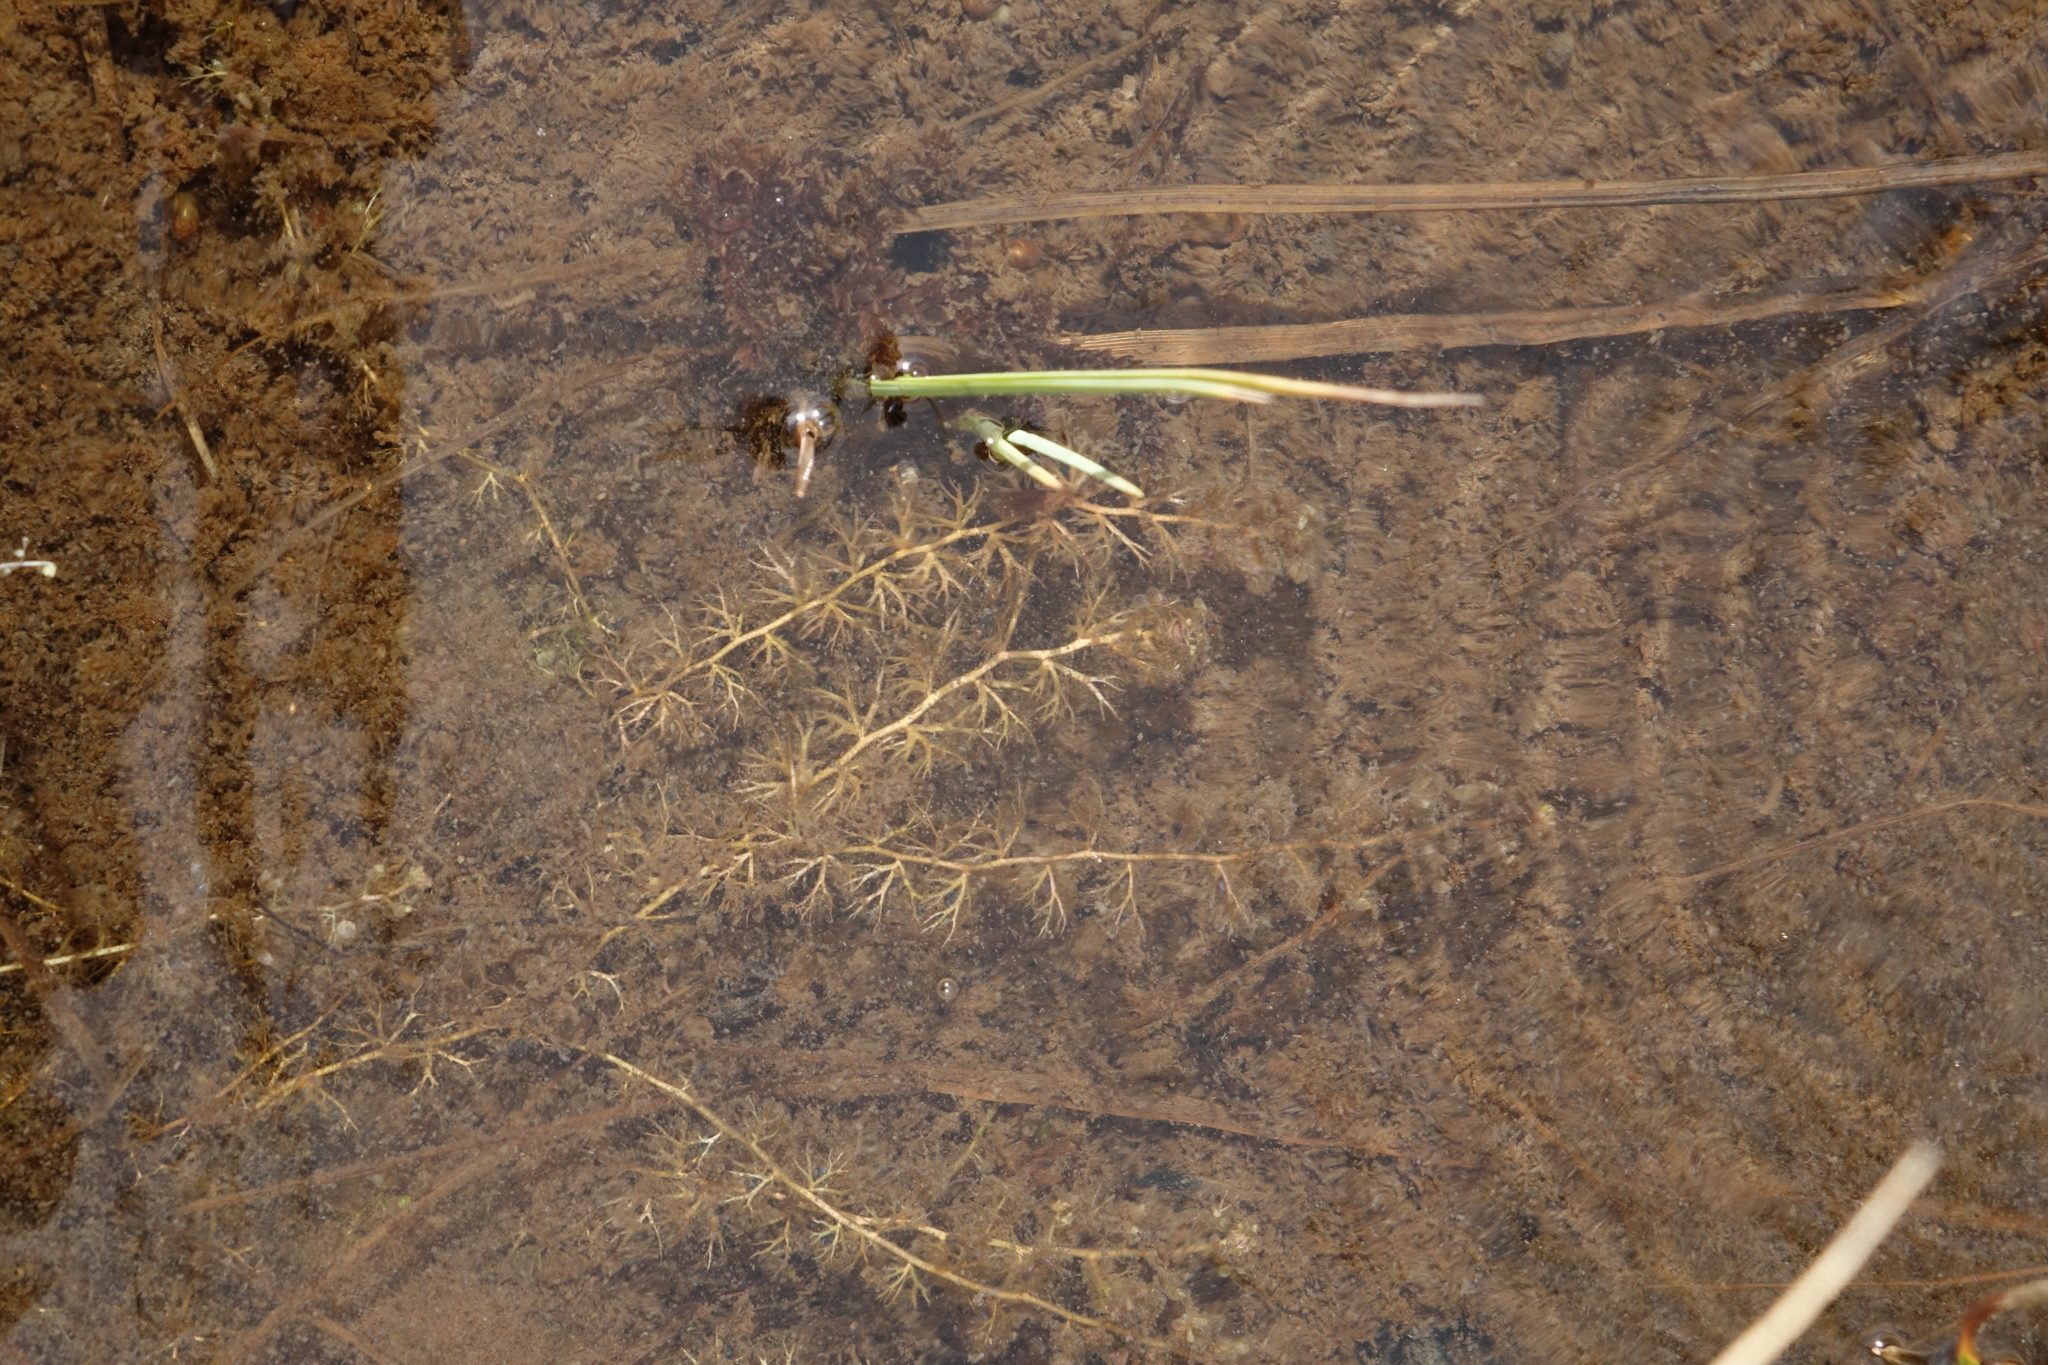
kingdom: Plantae
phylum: Tracheophyta
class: Magnoliopsida
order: Lamiales
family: Lentibulariaceae
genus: Utricularia
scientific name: Utricularia minor
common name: Lesser bladderwort
